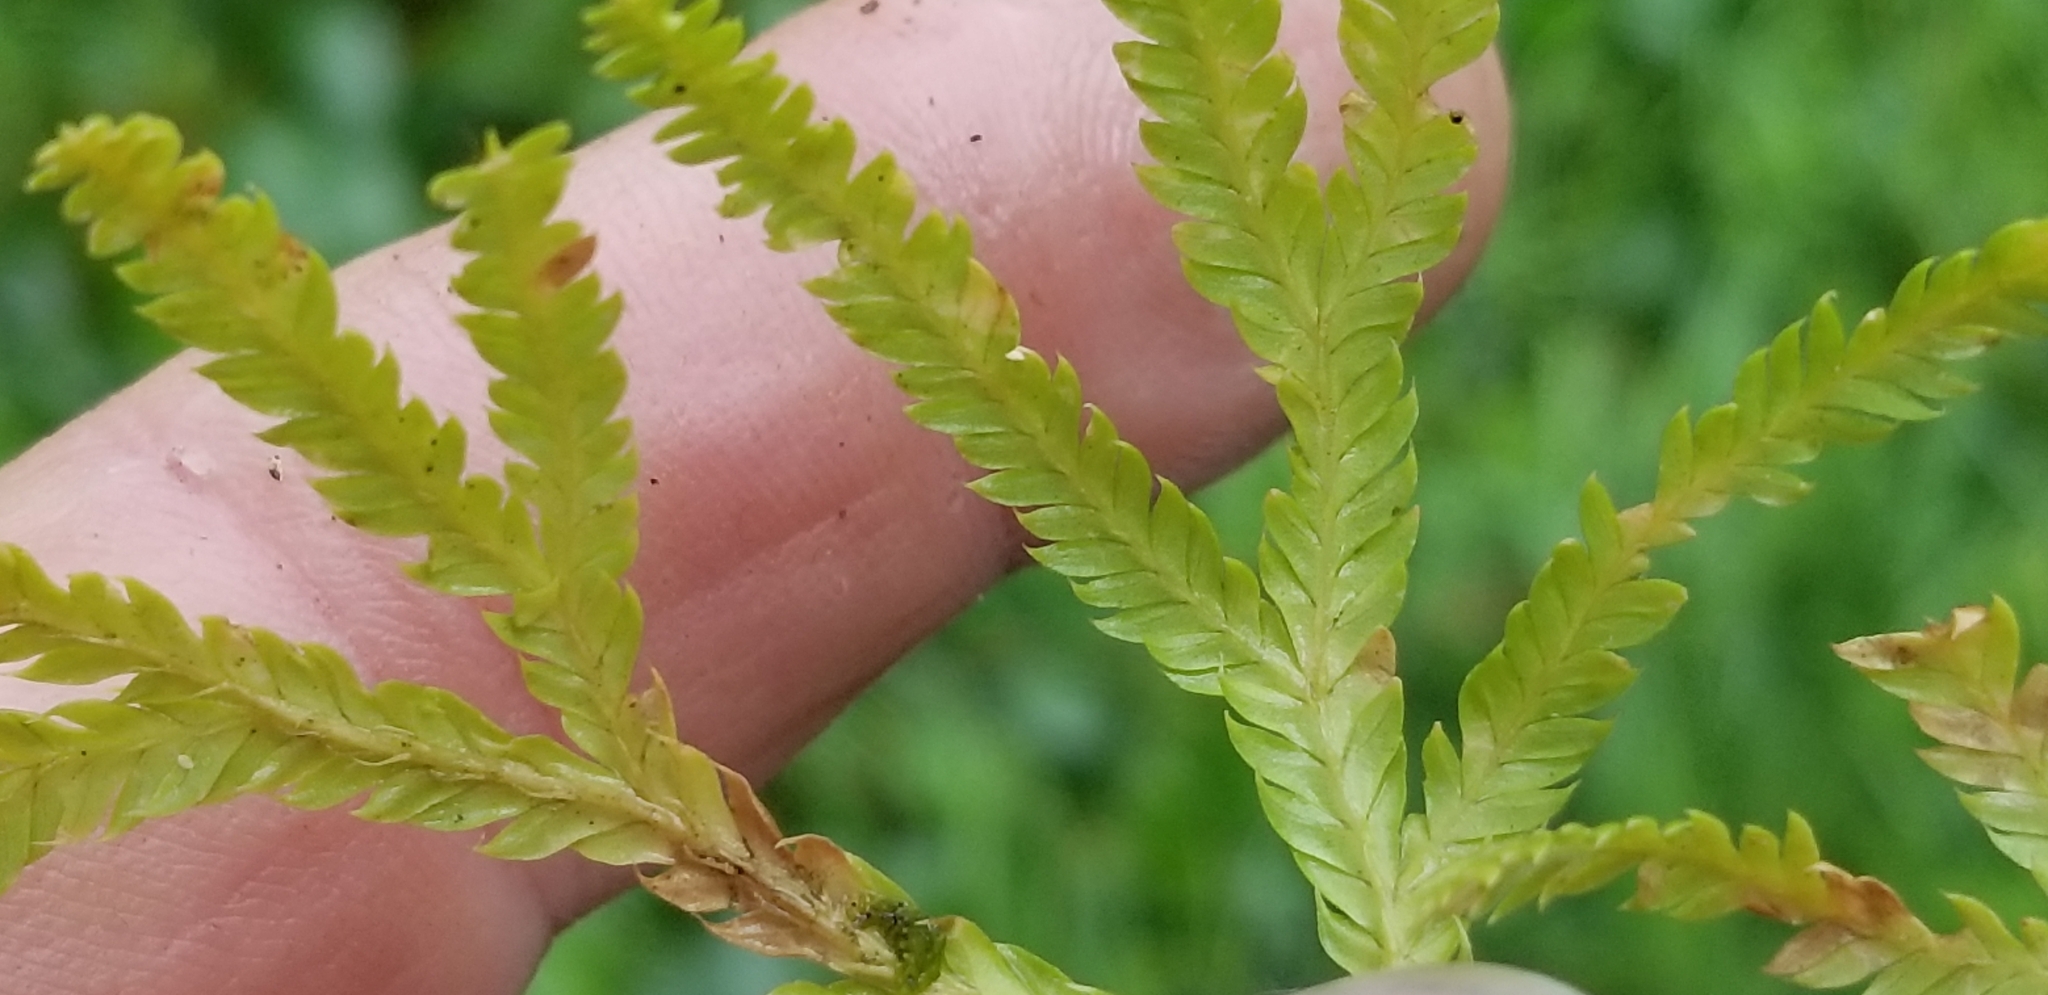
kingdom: Plantae
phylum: Tracheophyta
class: Lycopodiopsida
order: Lycopodiales
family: Lycopodiaceae
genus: Lycopodium
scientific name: Lycopodium volubile
